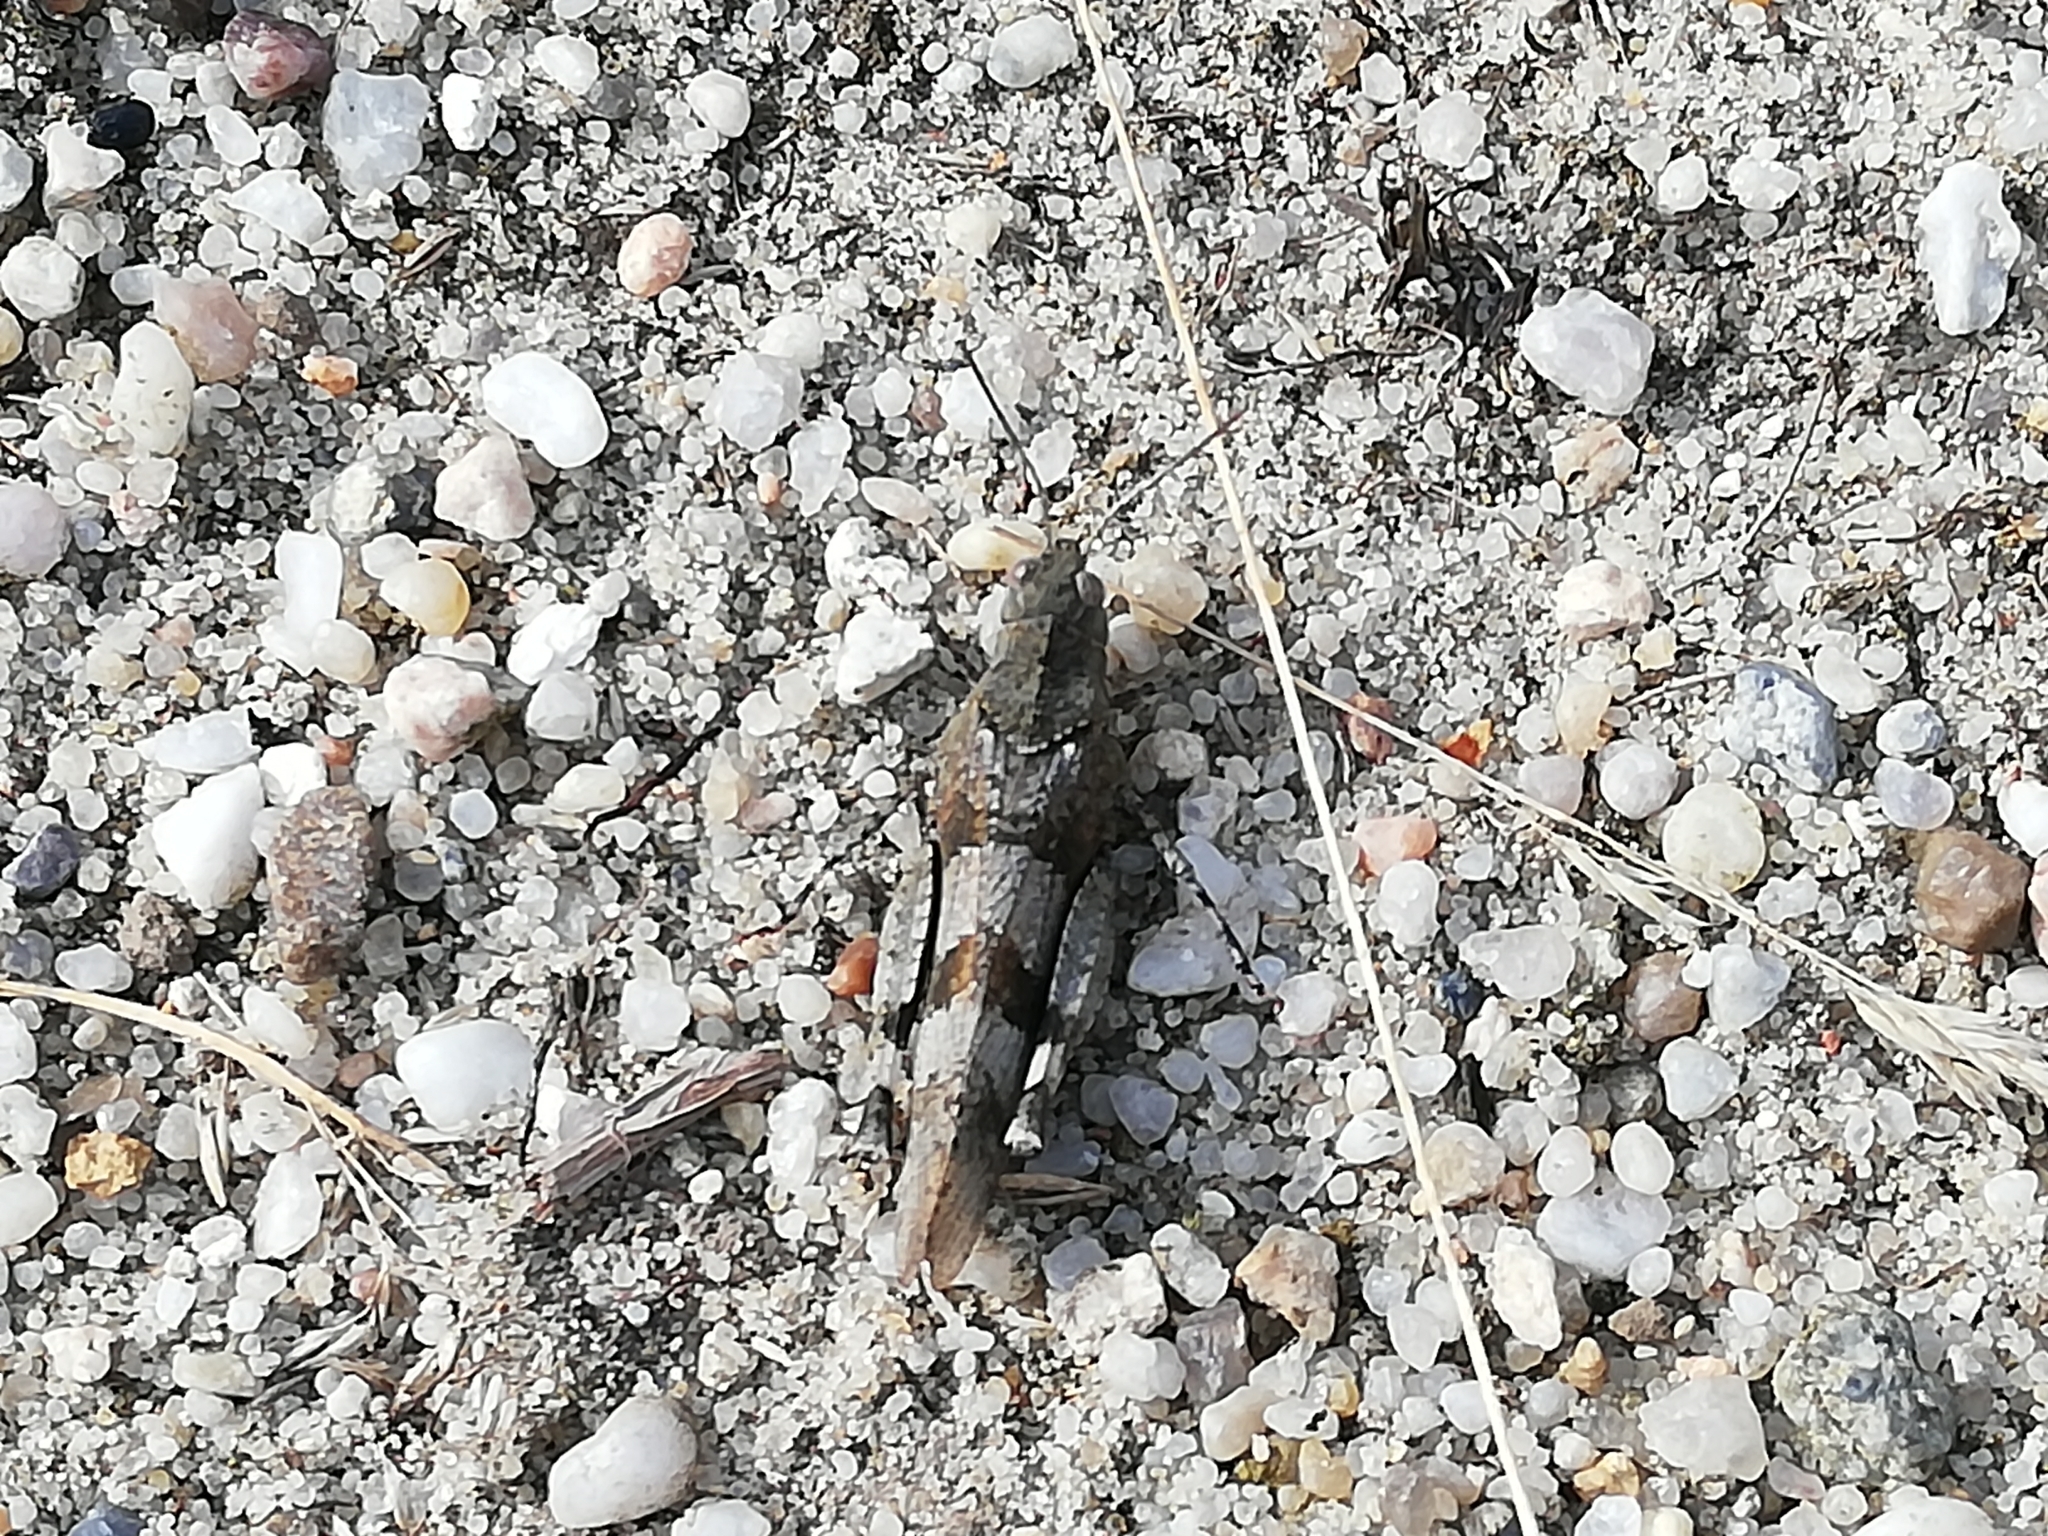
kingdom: Animalia
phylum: Arthropoda
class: Insecta
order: Orthoptera
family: Acrididae
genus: Oedipoda
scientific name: Oedipoda caerulescens
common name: Blue-winged grasshopper
